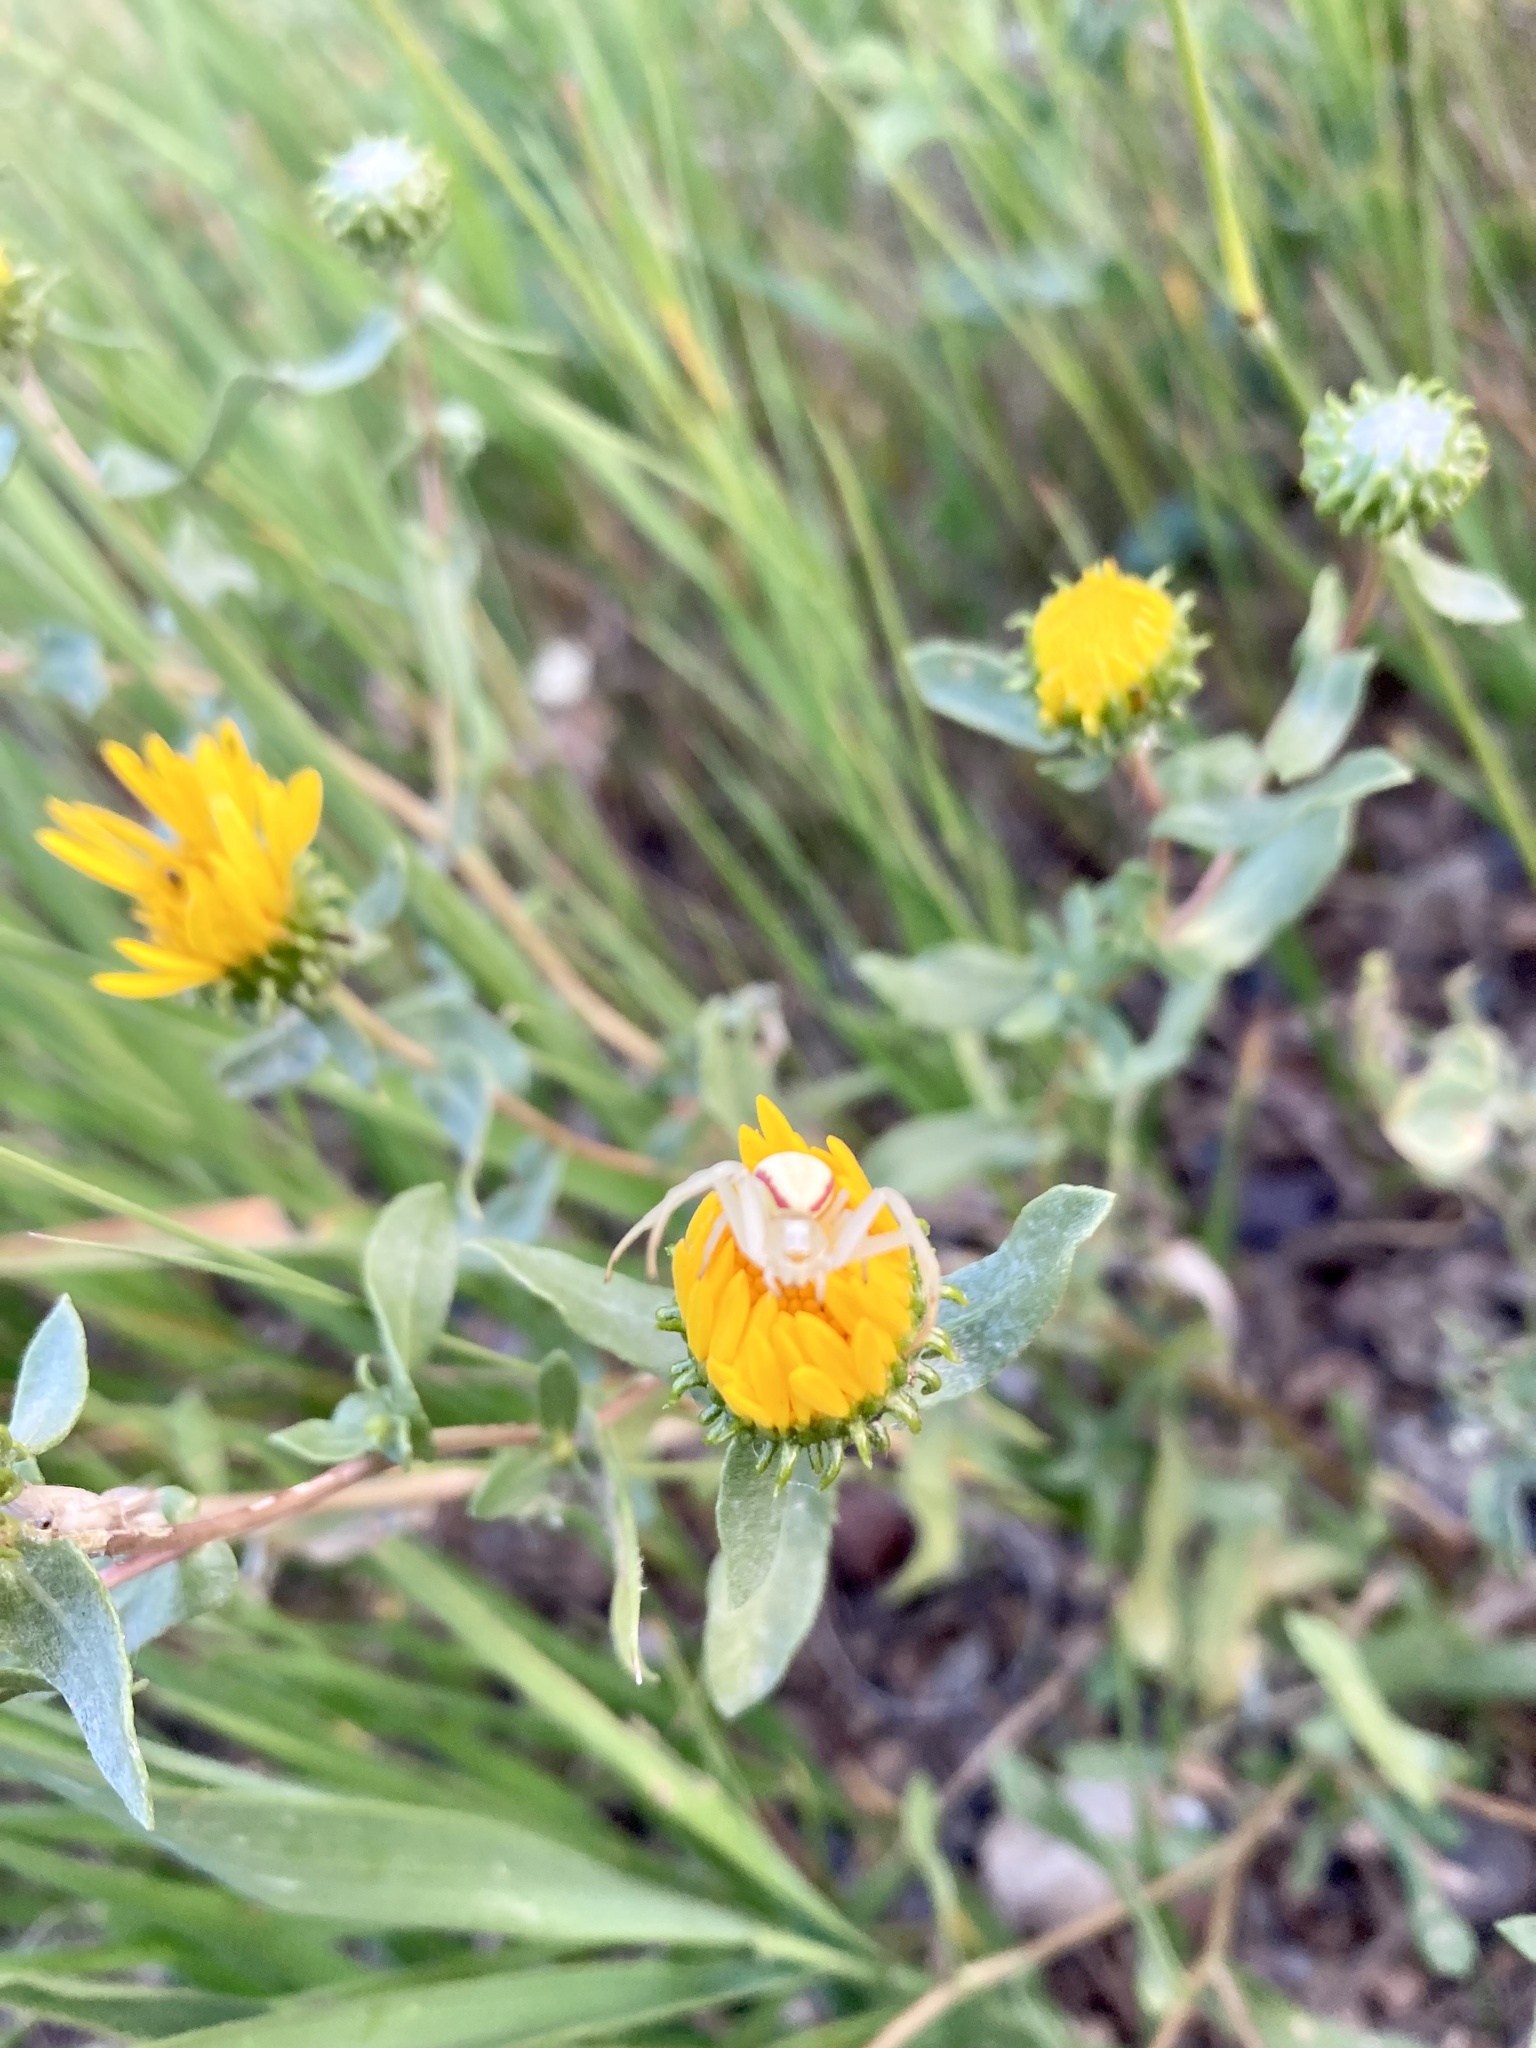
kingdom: Animalia
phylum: Arthropoda
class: Arachnida
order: Araneae
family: Thomisidae
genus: Misumena
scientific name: Misumena vatia
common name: Goldenrod crab spider
